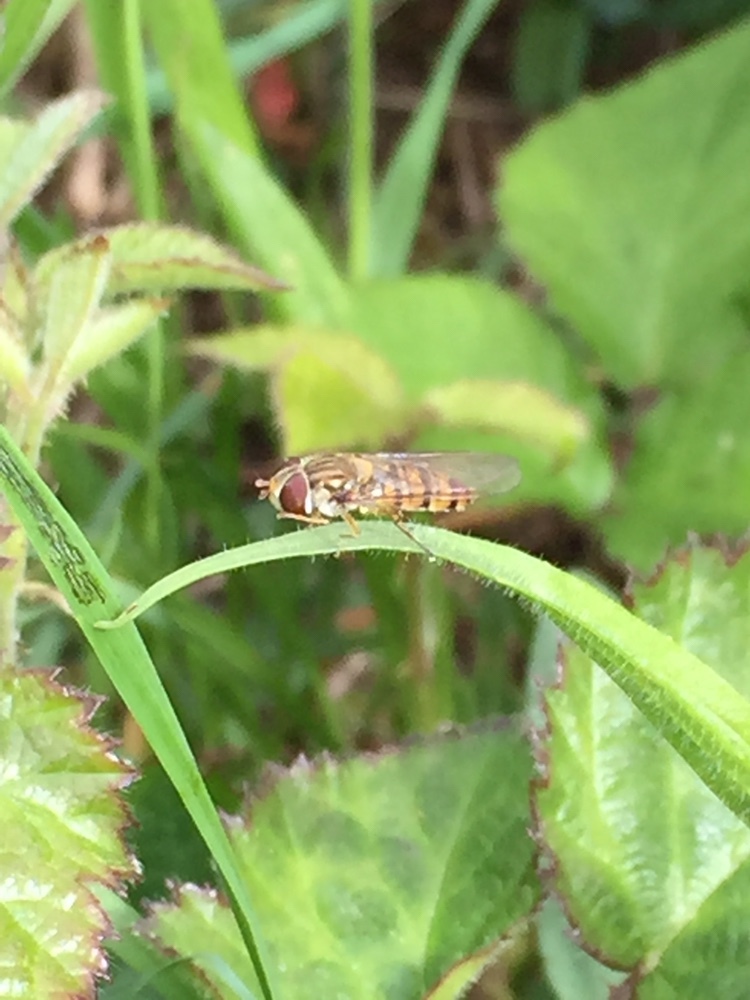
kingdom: Animalia
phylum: Arthropoda
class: Insecta
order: Diptera
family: Syrphidae
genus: Episyrphus
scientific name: Episyrphus balteatus
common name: Marmalade hoverfly
